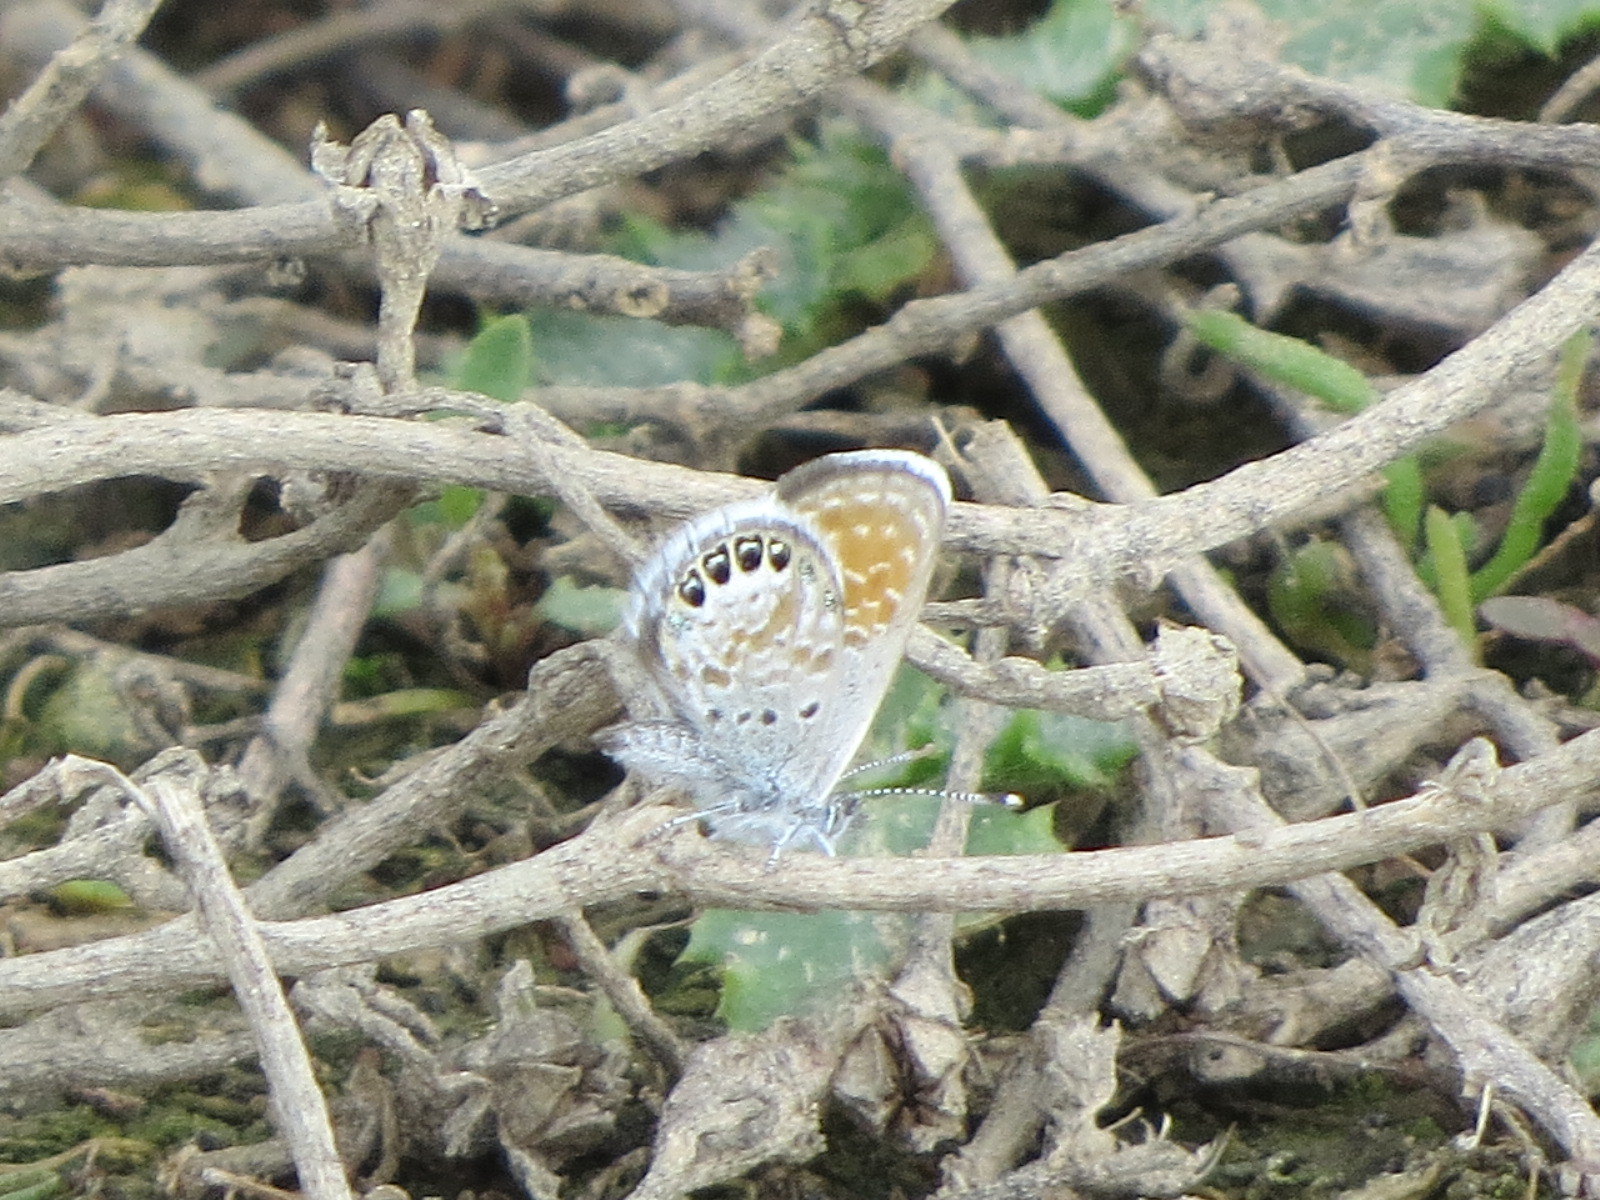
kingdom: Animalia
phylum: Arthropoda
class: Insecta
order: Lepidoptera
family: Lycaenidae
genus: Brephidium
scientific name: Brephidium exilis
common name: Pygmy blue
